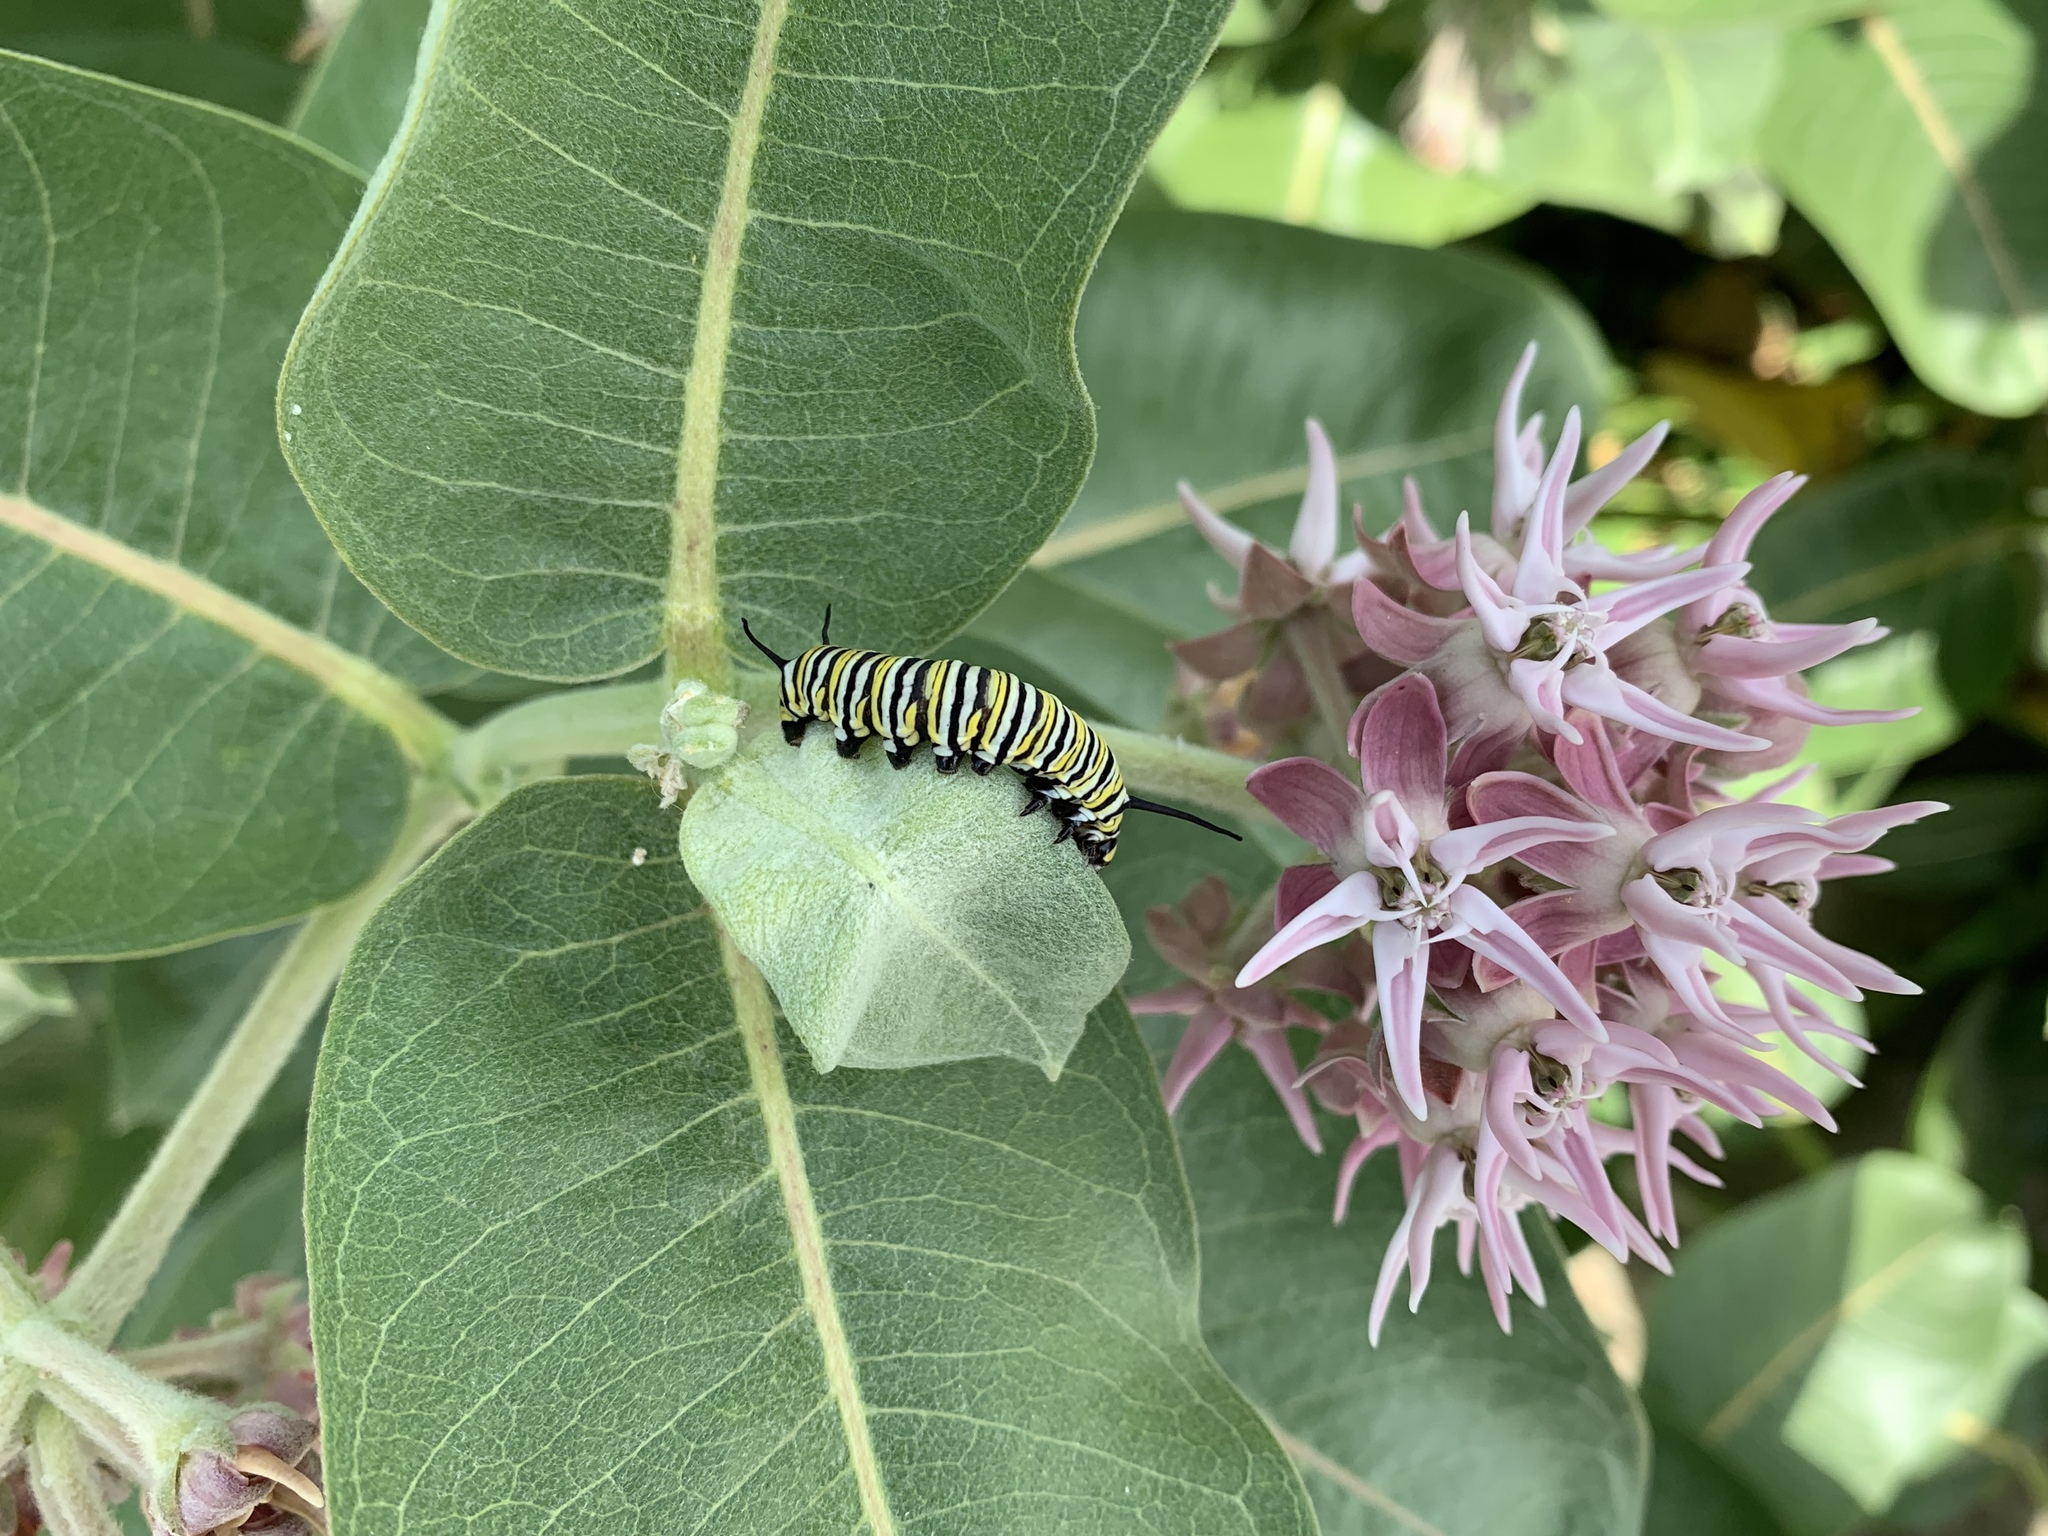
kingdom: Plantae
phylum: Tracheophyta
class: Magnoliopsida
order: Gentianales
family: Apocynaceae
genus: Asclepias
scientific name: Asclepias speciosa
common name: Showy milkweed
